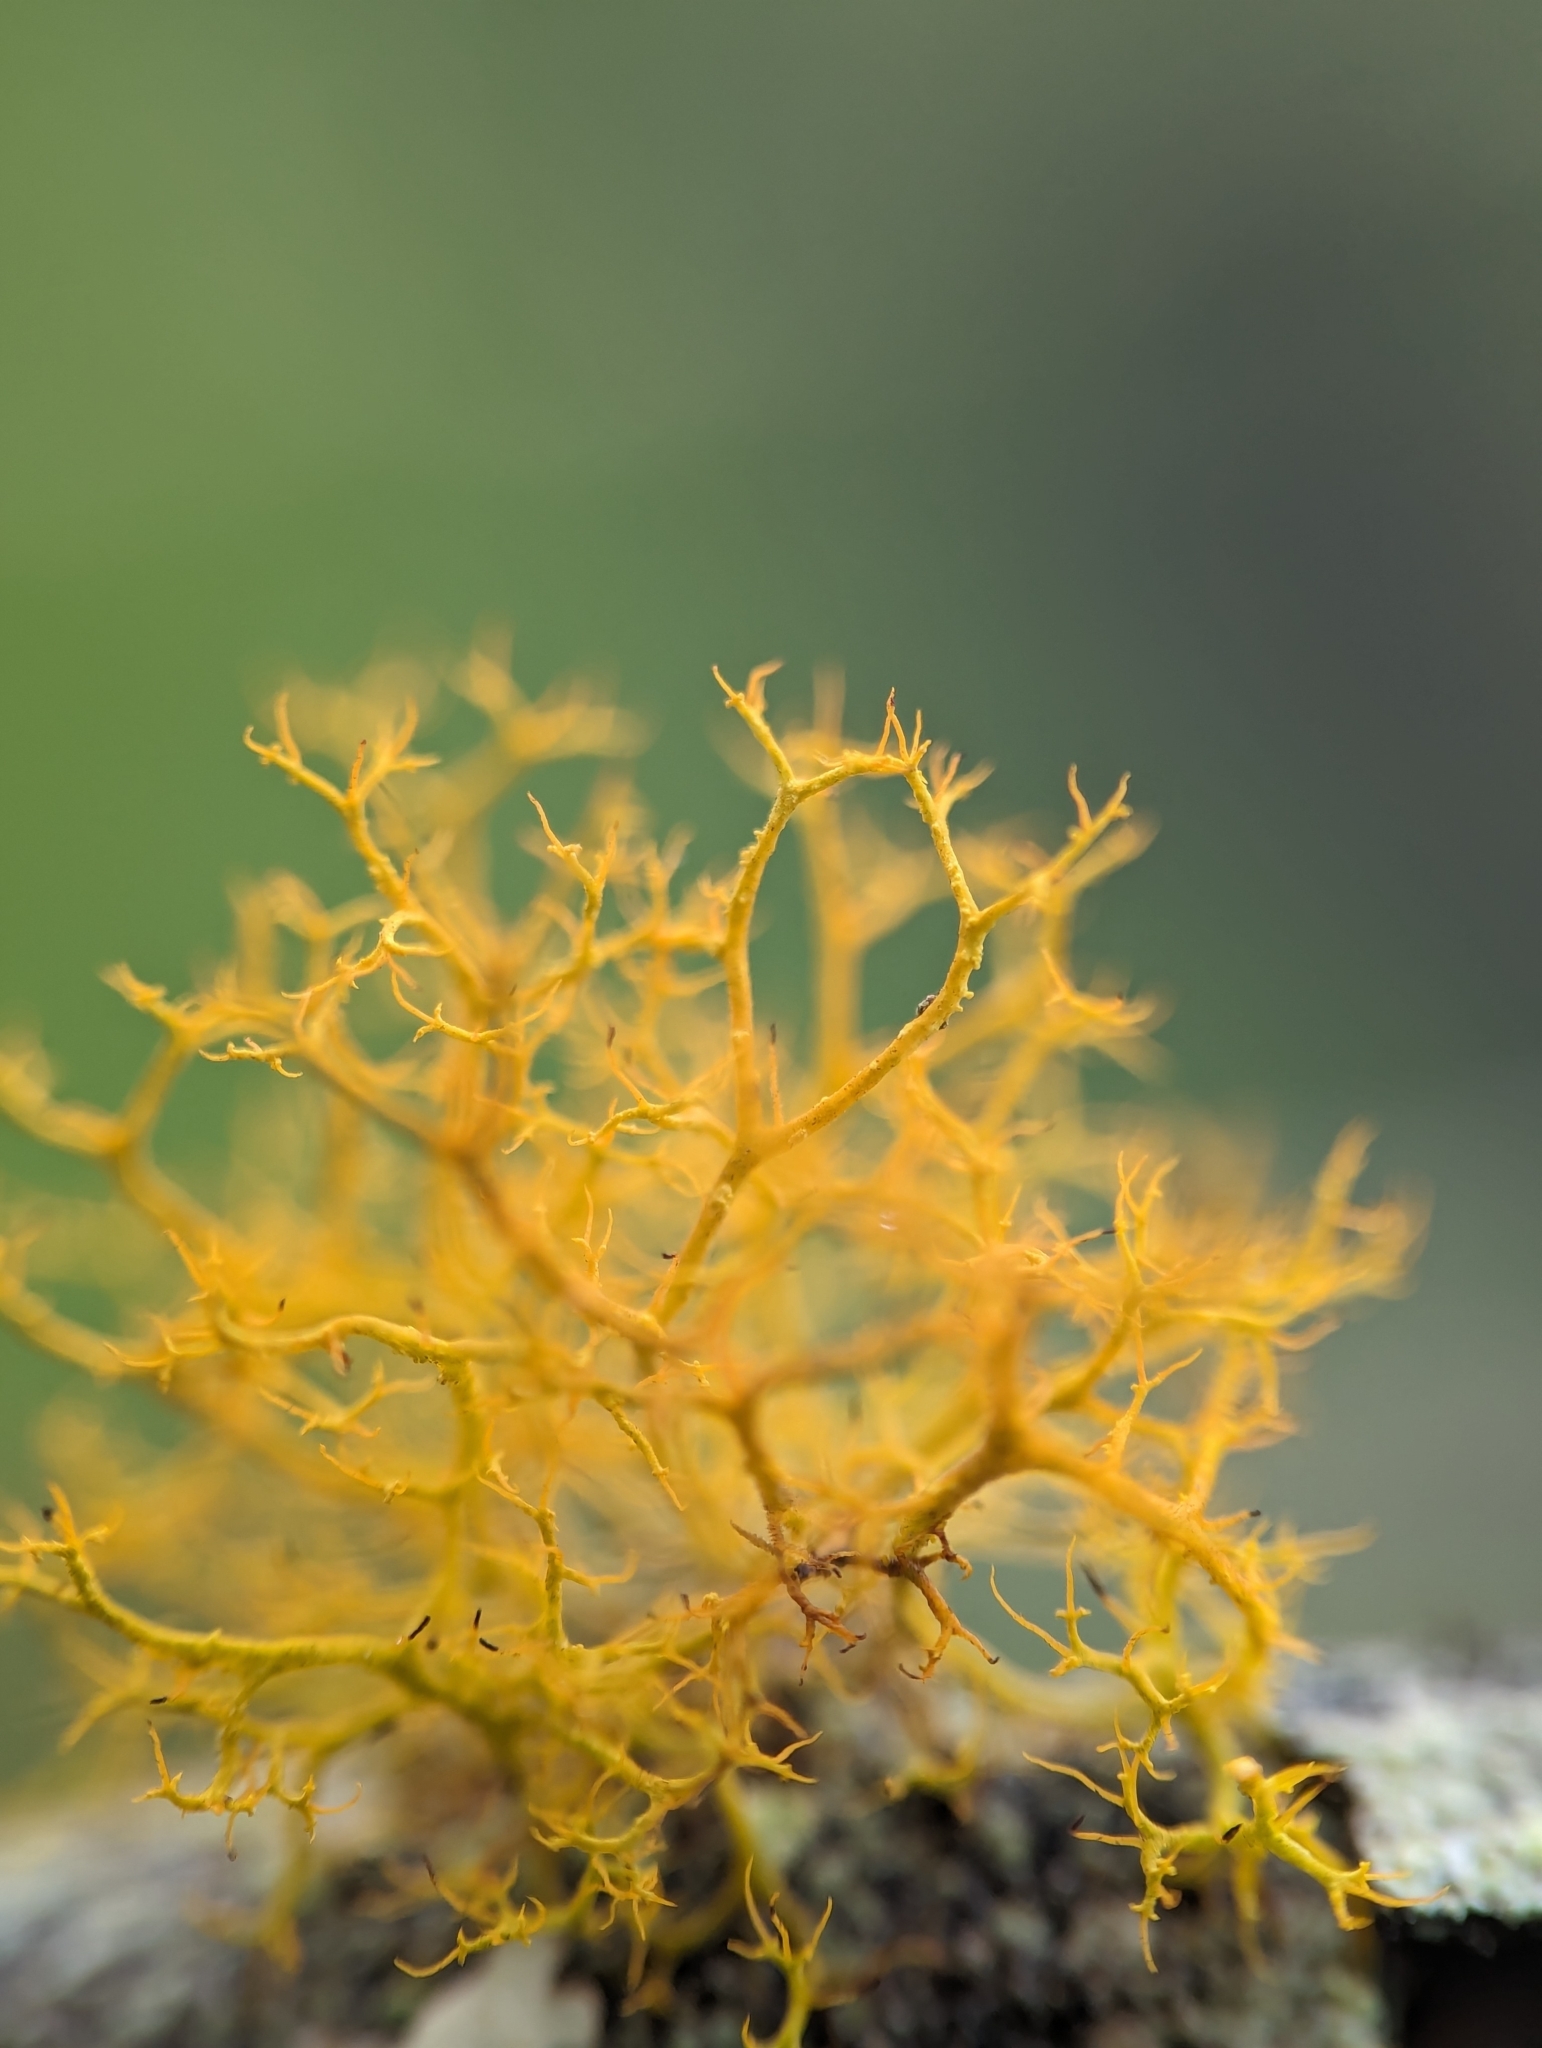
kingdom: Fungi
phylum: Ascomycota
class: Lecanoromycetes
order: Teloschistales
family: Teloschistaceae
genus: Teloschistes
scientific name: Teloschistes flavicans
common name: Golden hair-lichen
